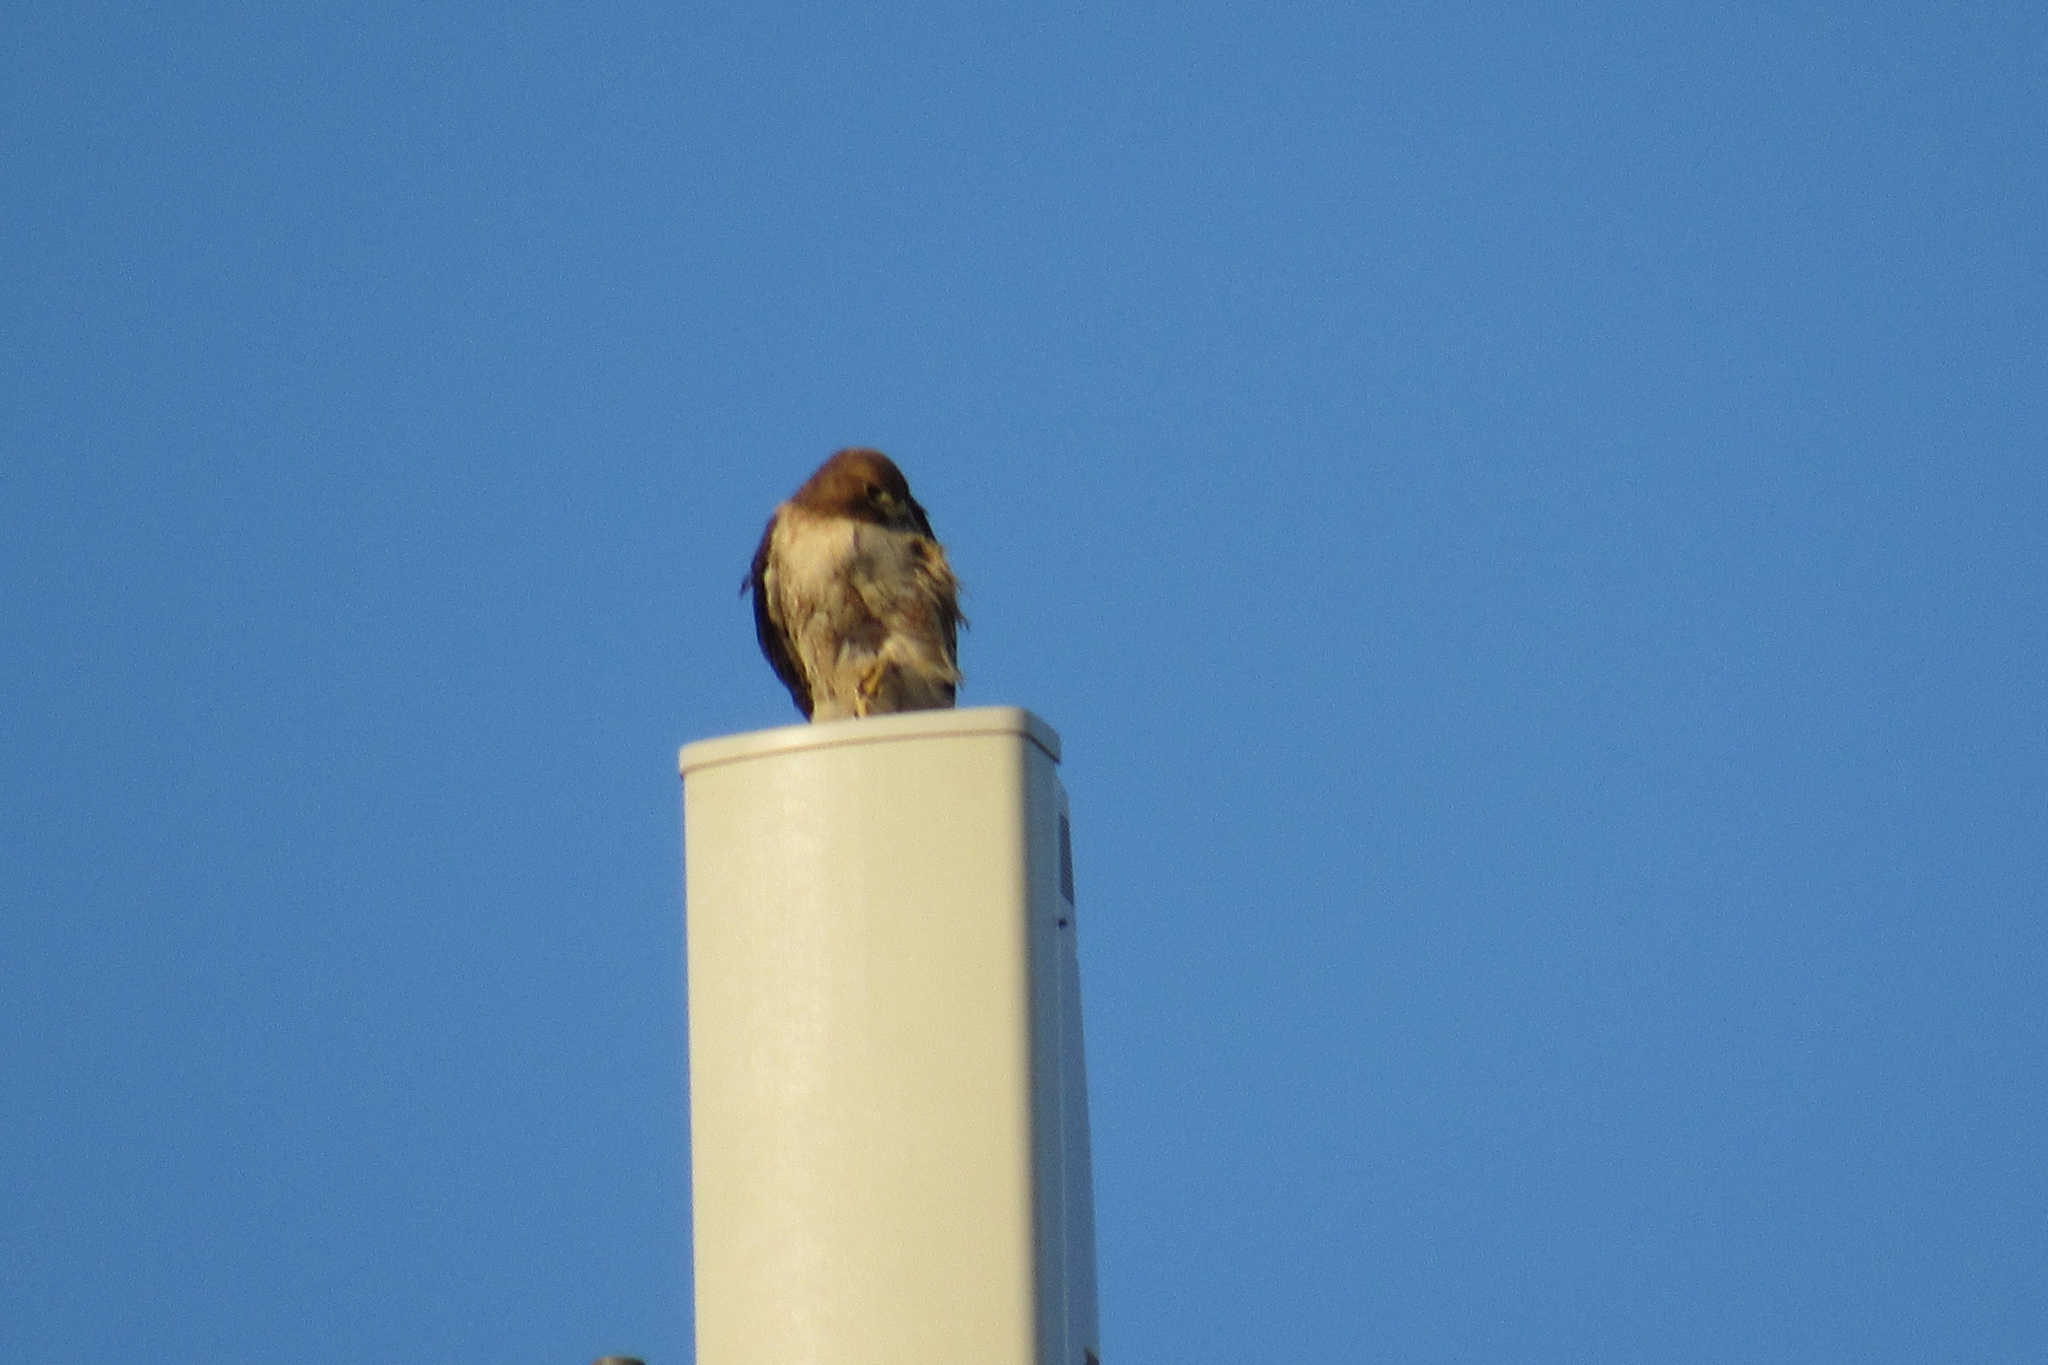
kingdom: Animalia
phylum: Chordata
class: Aves
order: Accipitriformes
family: Accipitridae
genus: Buteo
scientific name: Buteo jamaicensis
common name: Red-tailed hawk
